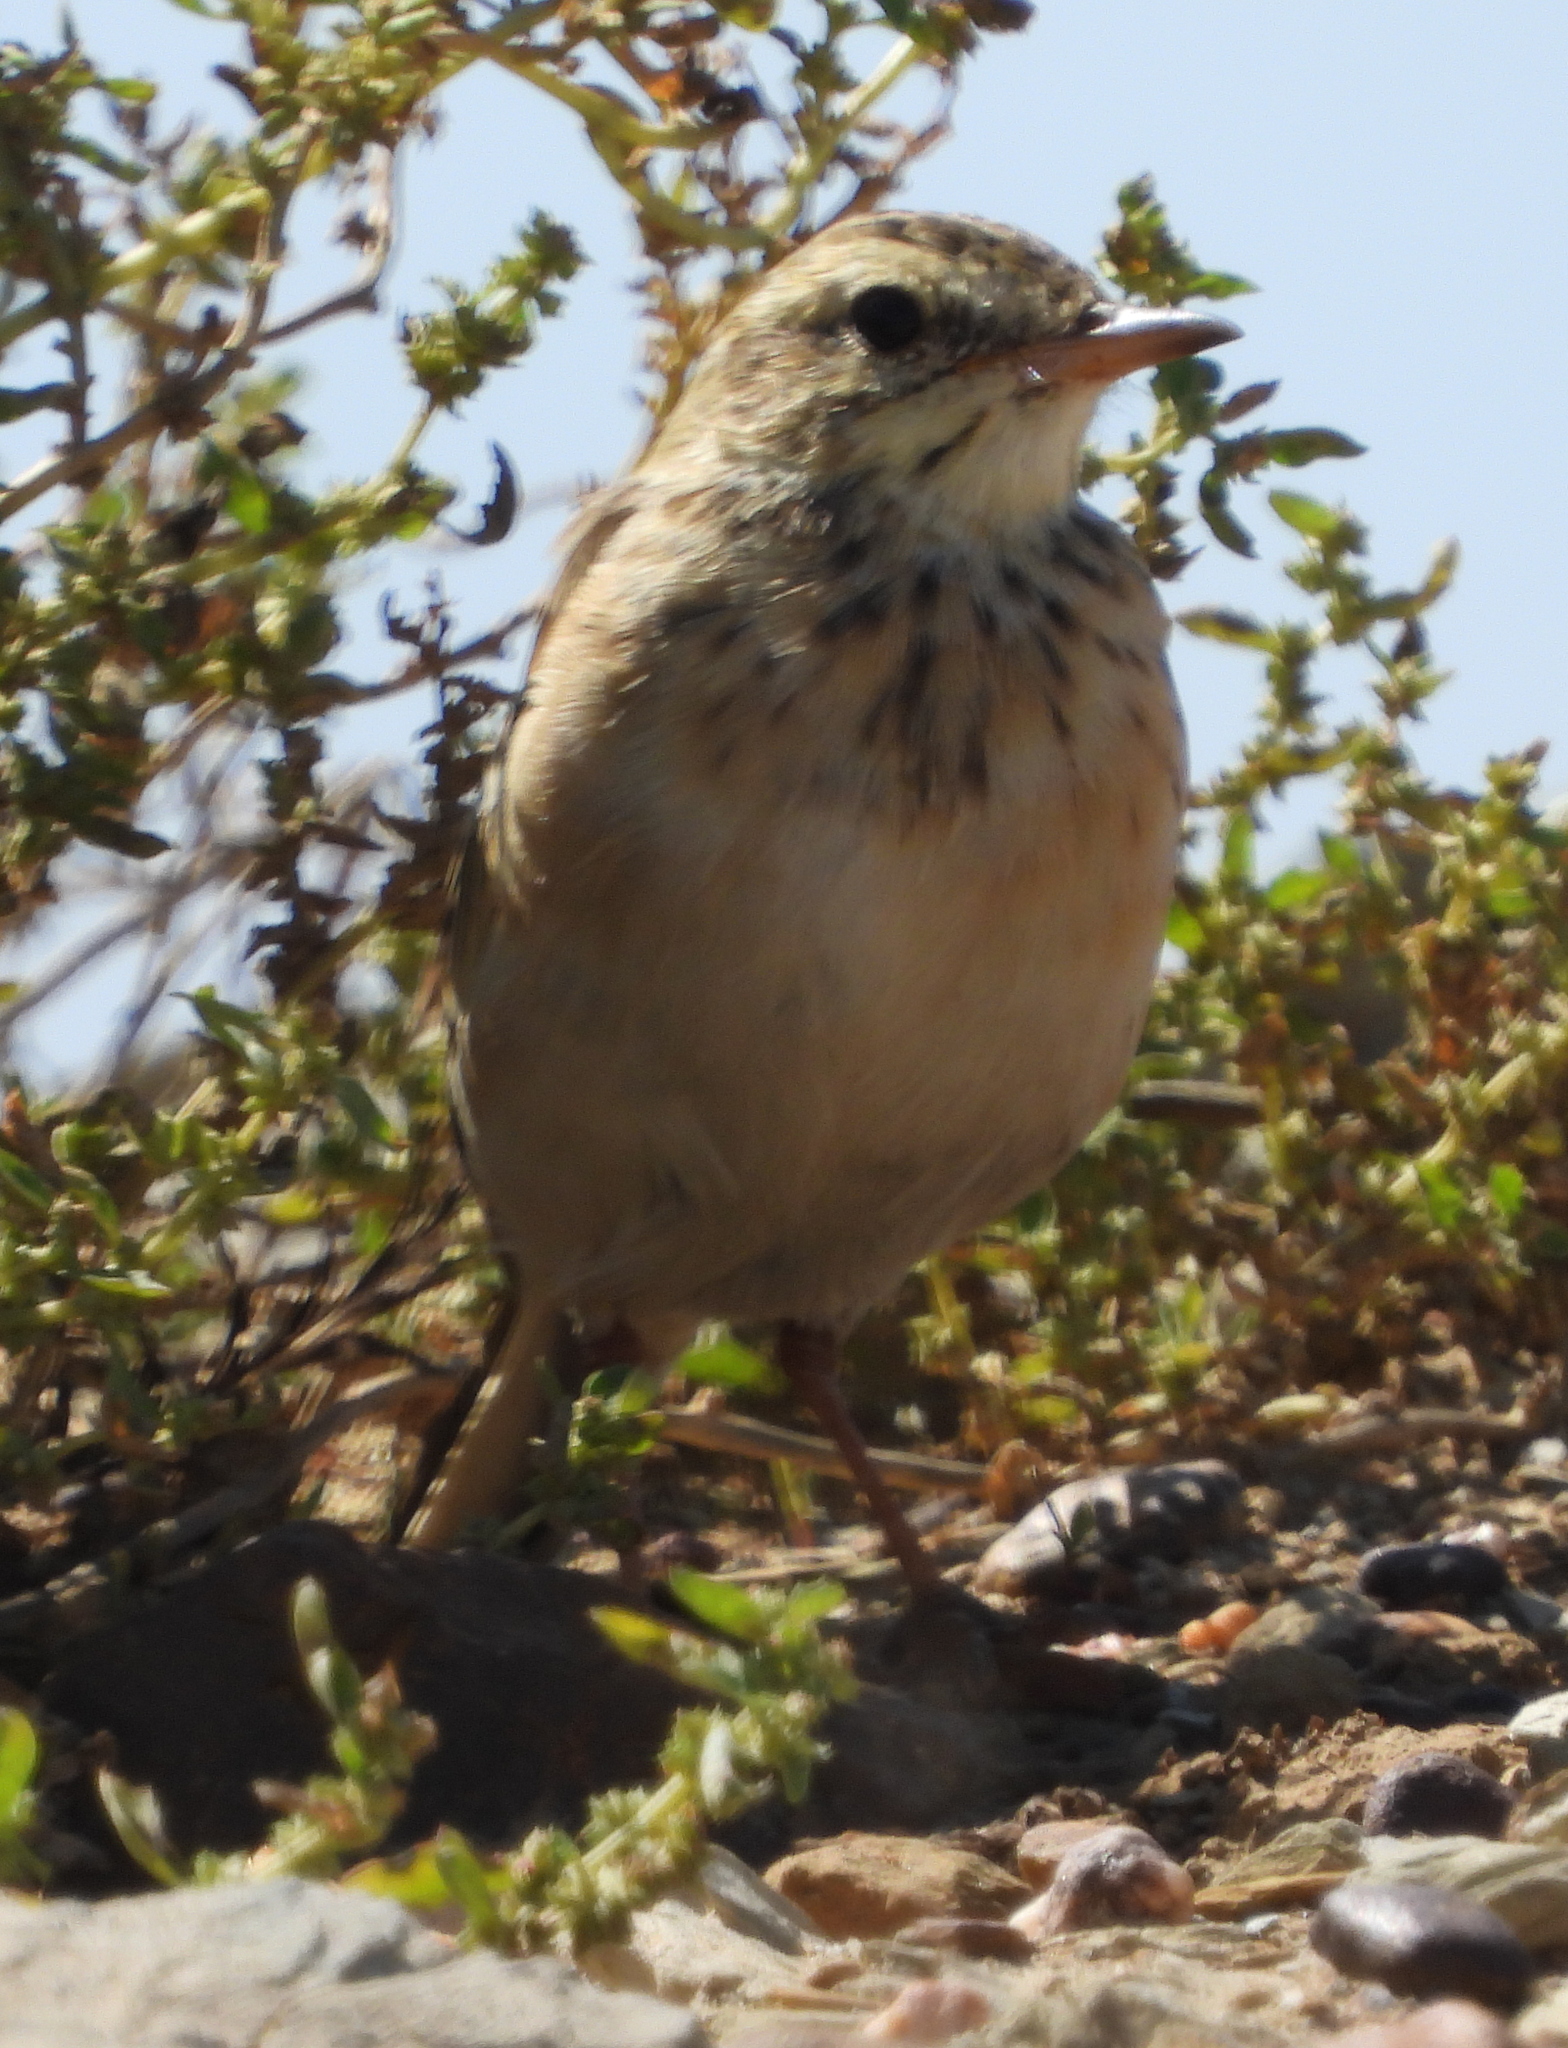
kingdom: Animalia
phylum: Chordata
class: Aves
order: Passeriformes
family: Motacillidae
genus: Anthus
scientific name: Anthus cinnamomeus
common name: African pipit
